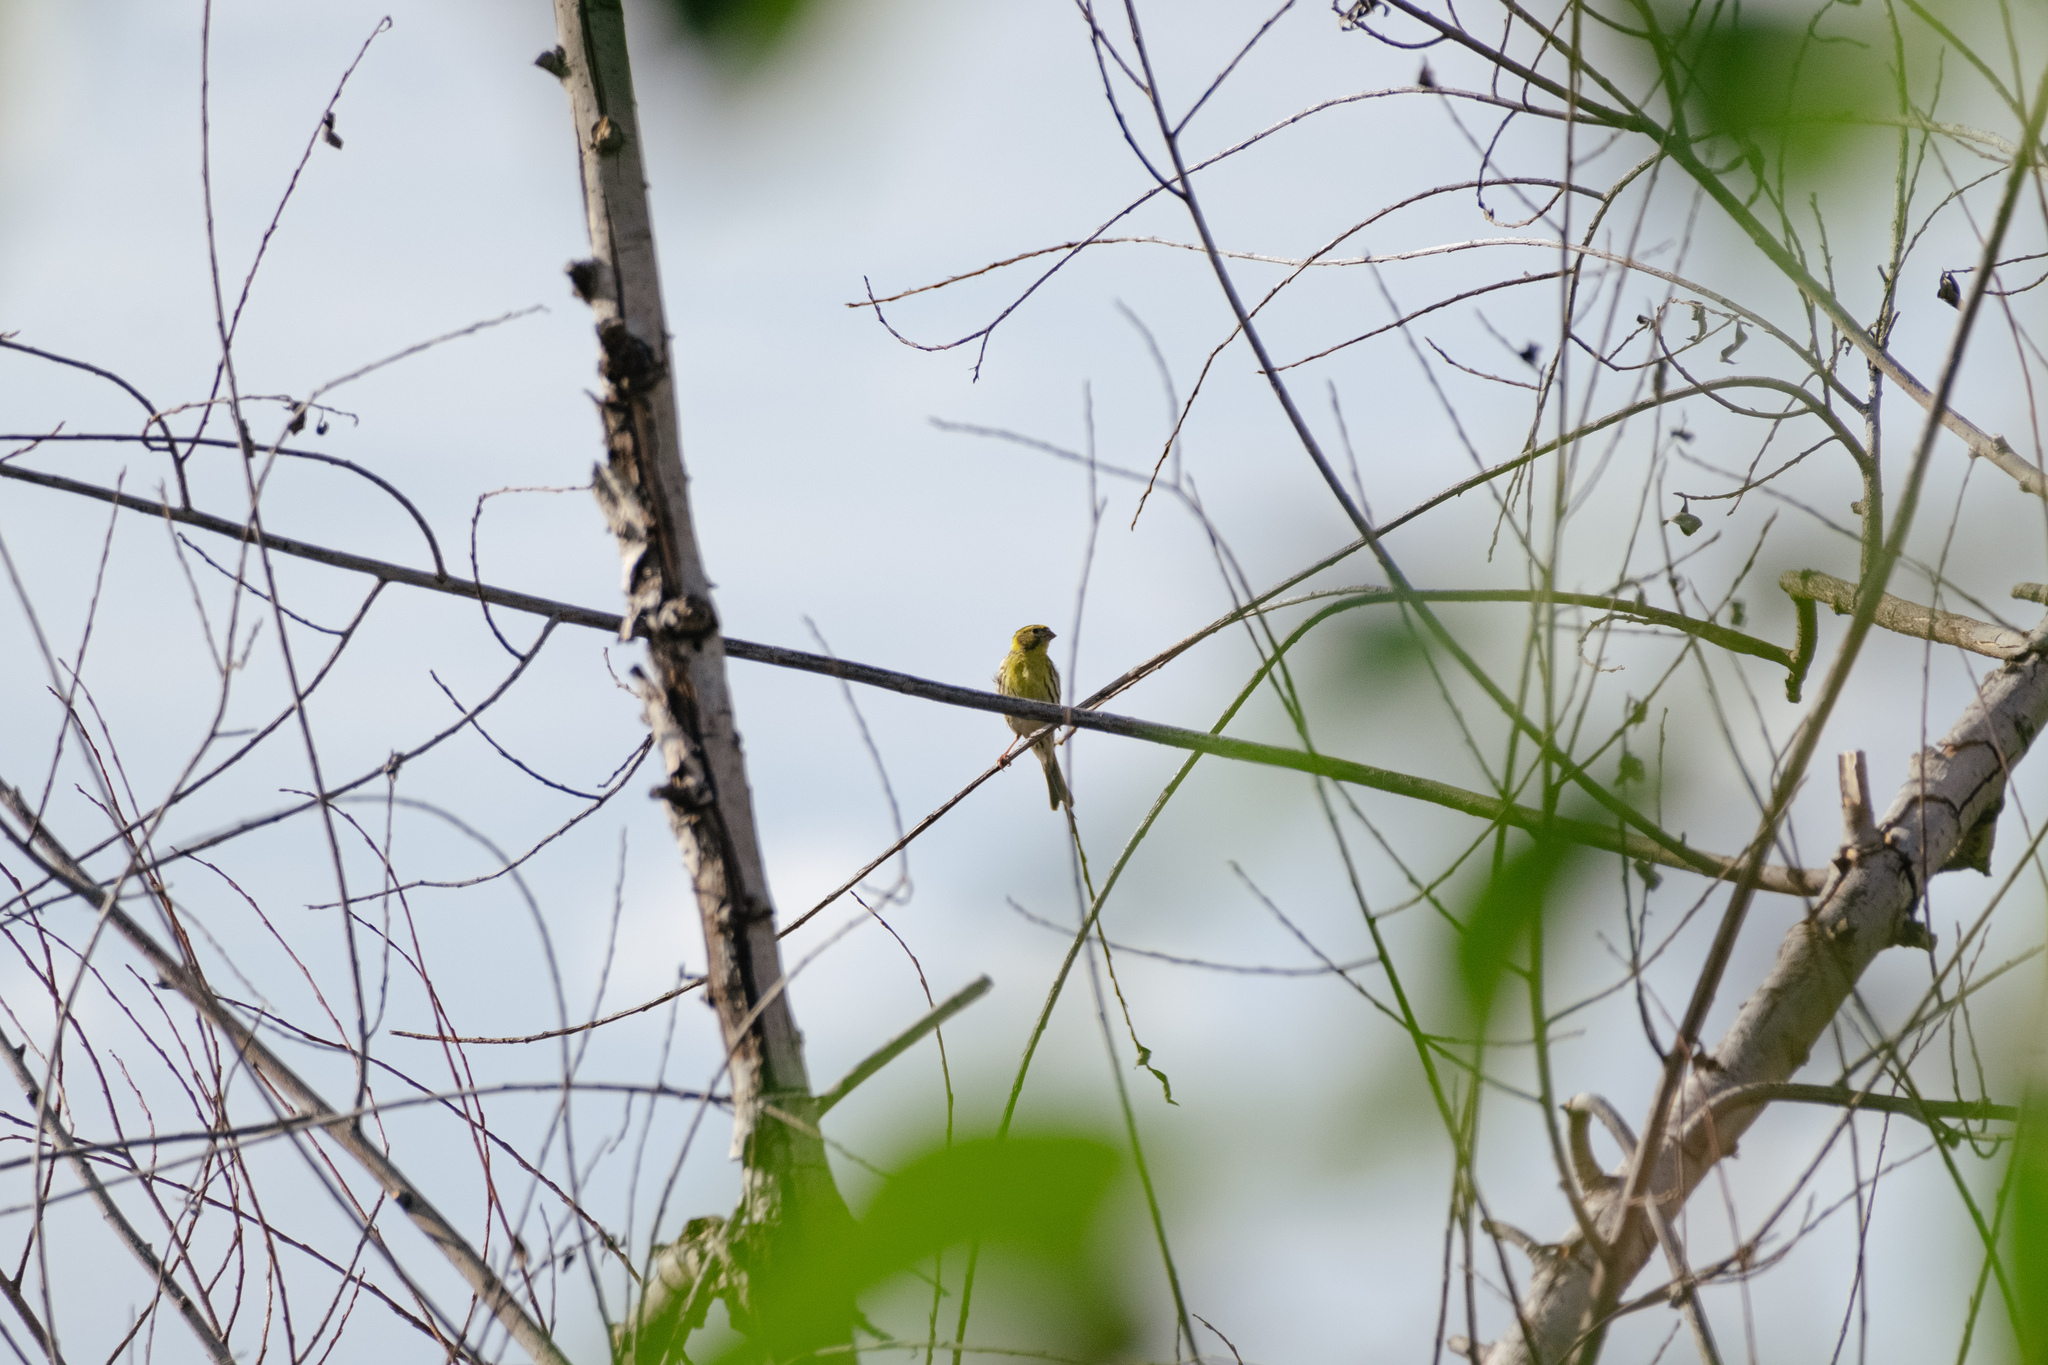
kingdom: Animalia
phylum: Chordata
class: Aves
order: Passeriformes
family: Fringillidae
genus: Serinus
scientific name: Serinus serinus
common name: European serin
